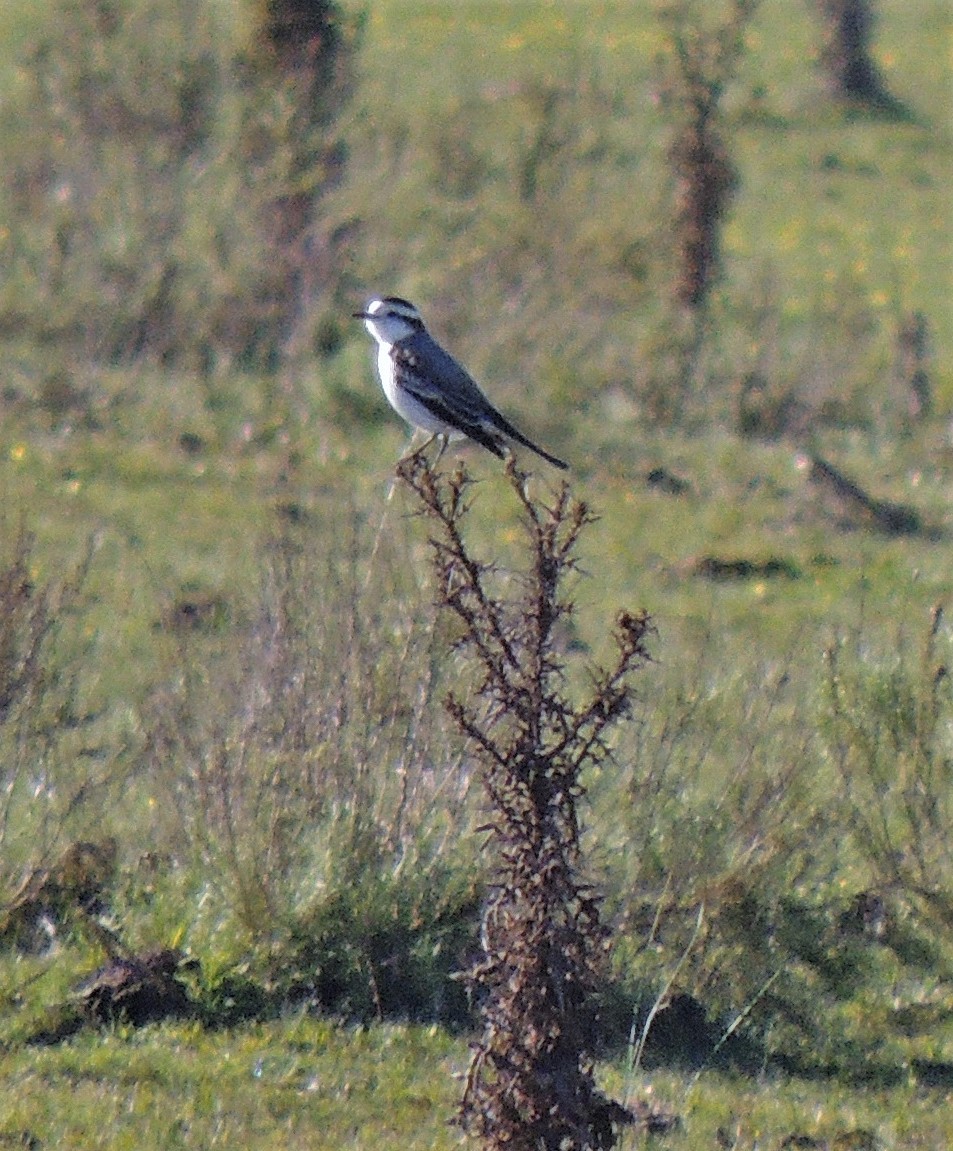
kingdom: Animalia
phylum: Chordata
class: Aves
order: Passeriformes
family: Tyrannidae
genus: Xolmis
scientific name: Xolmis coronatus
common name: Black-crowned monjita
